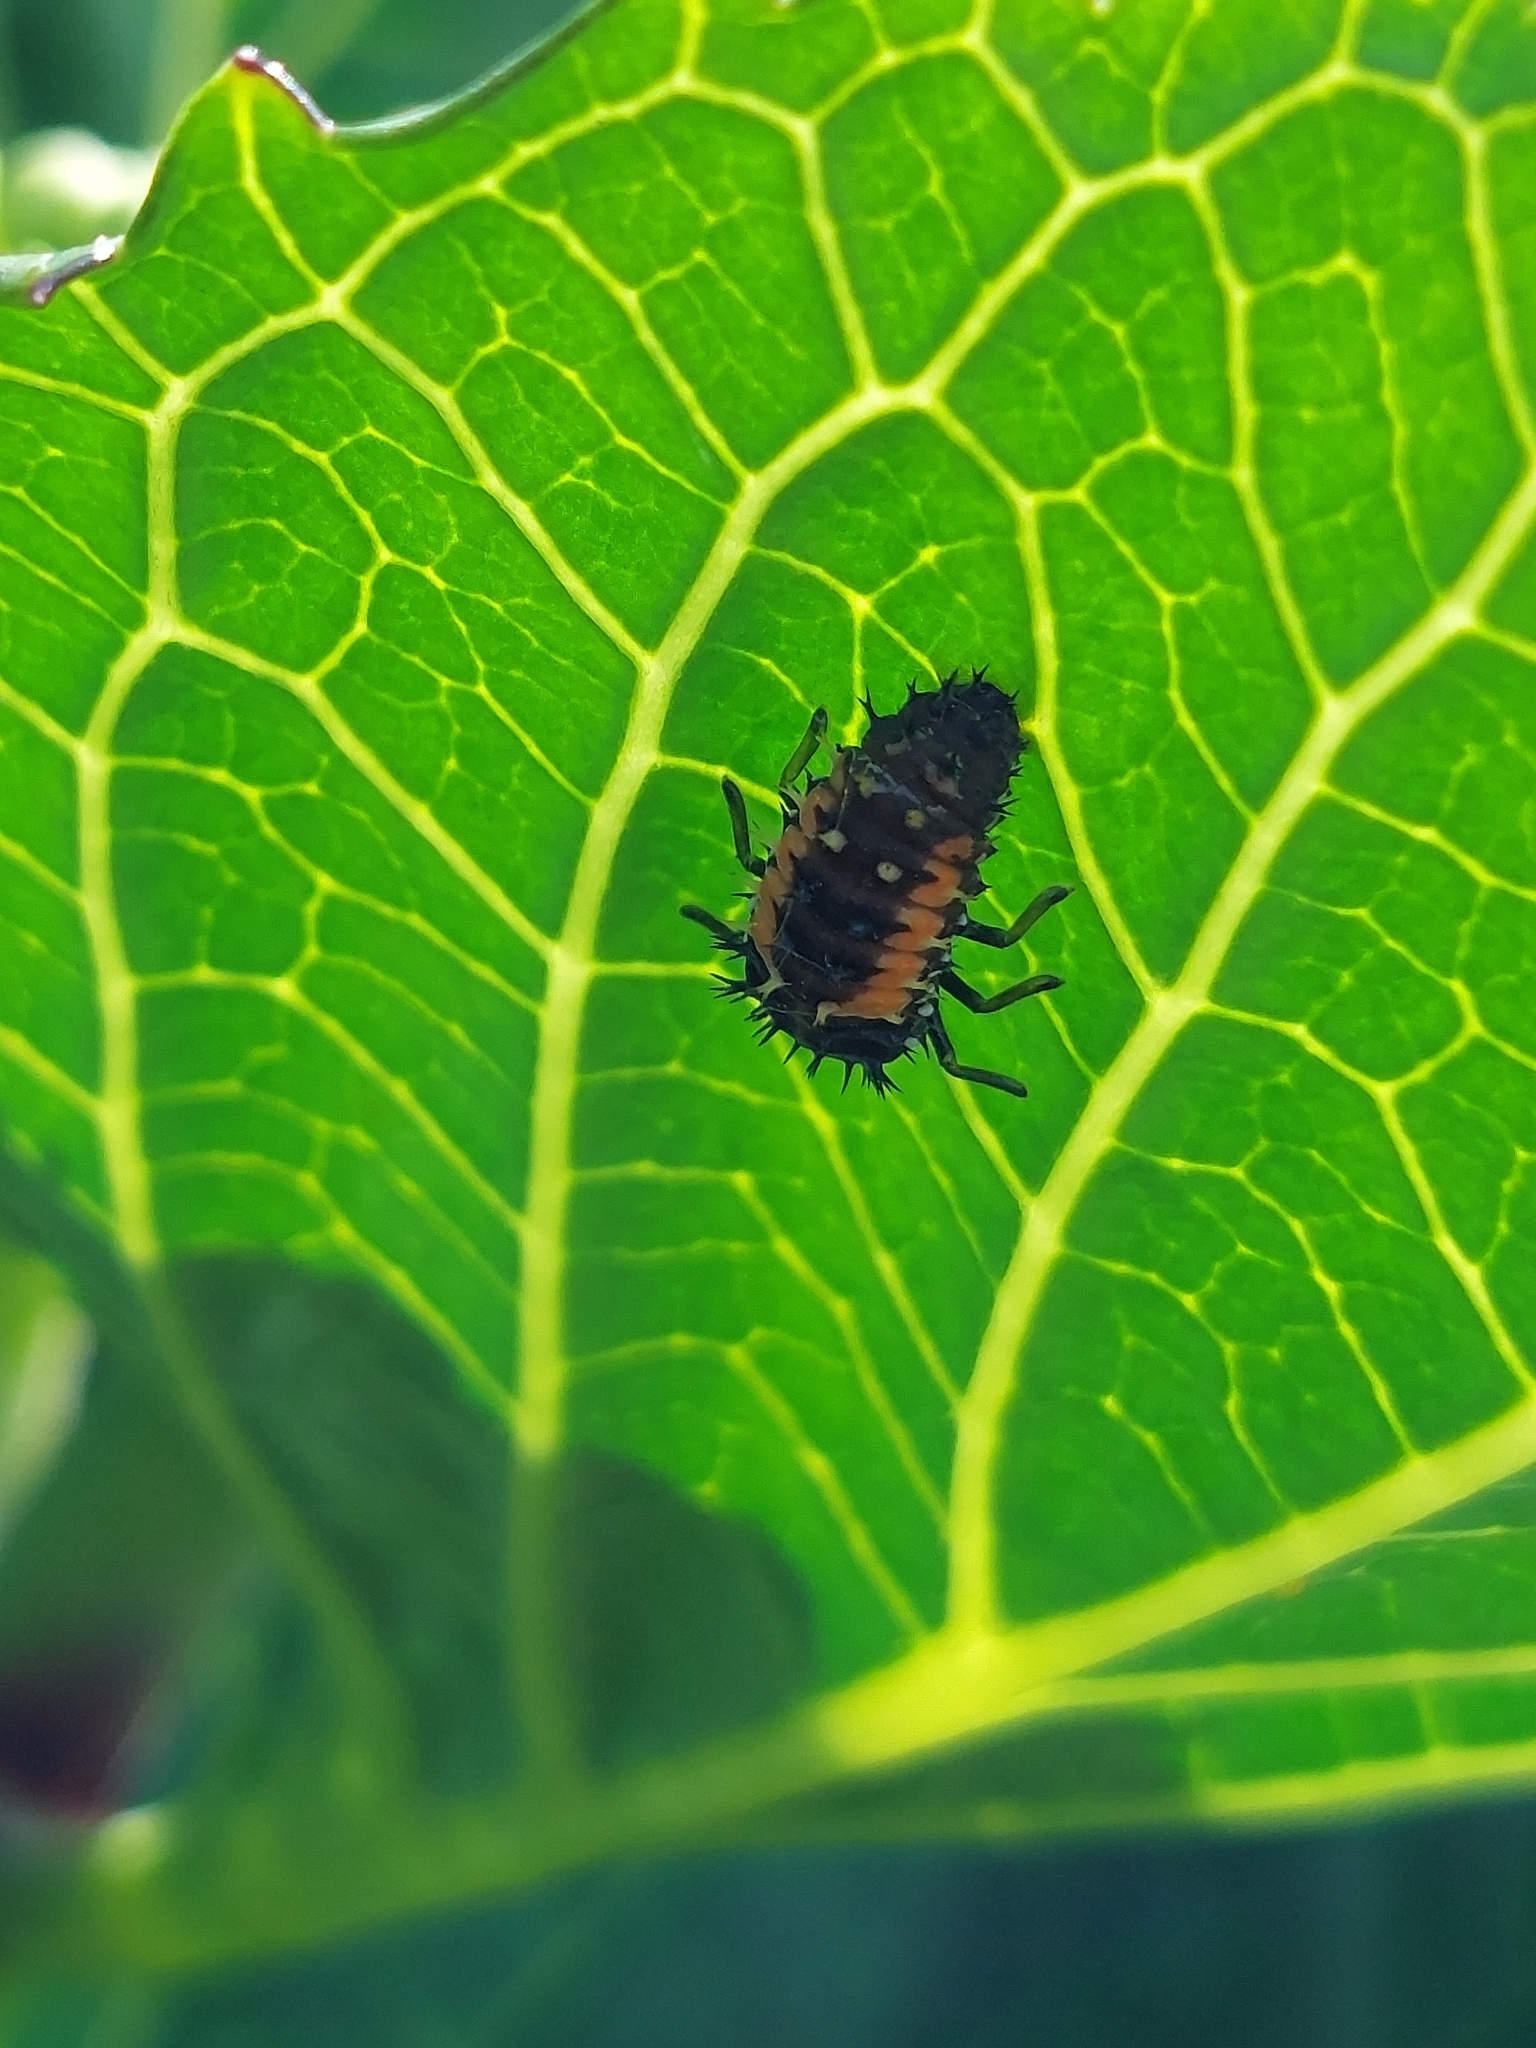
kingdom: Animalia
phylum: Arthropoda
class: Insecta
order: Coleoptera
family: Coccinellidae
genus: Harmonia
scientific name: Harmonia axyridis
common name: Harlequin ladybird
